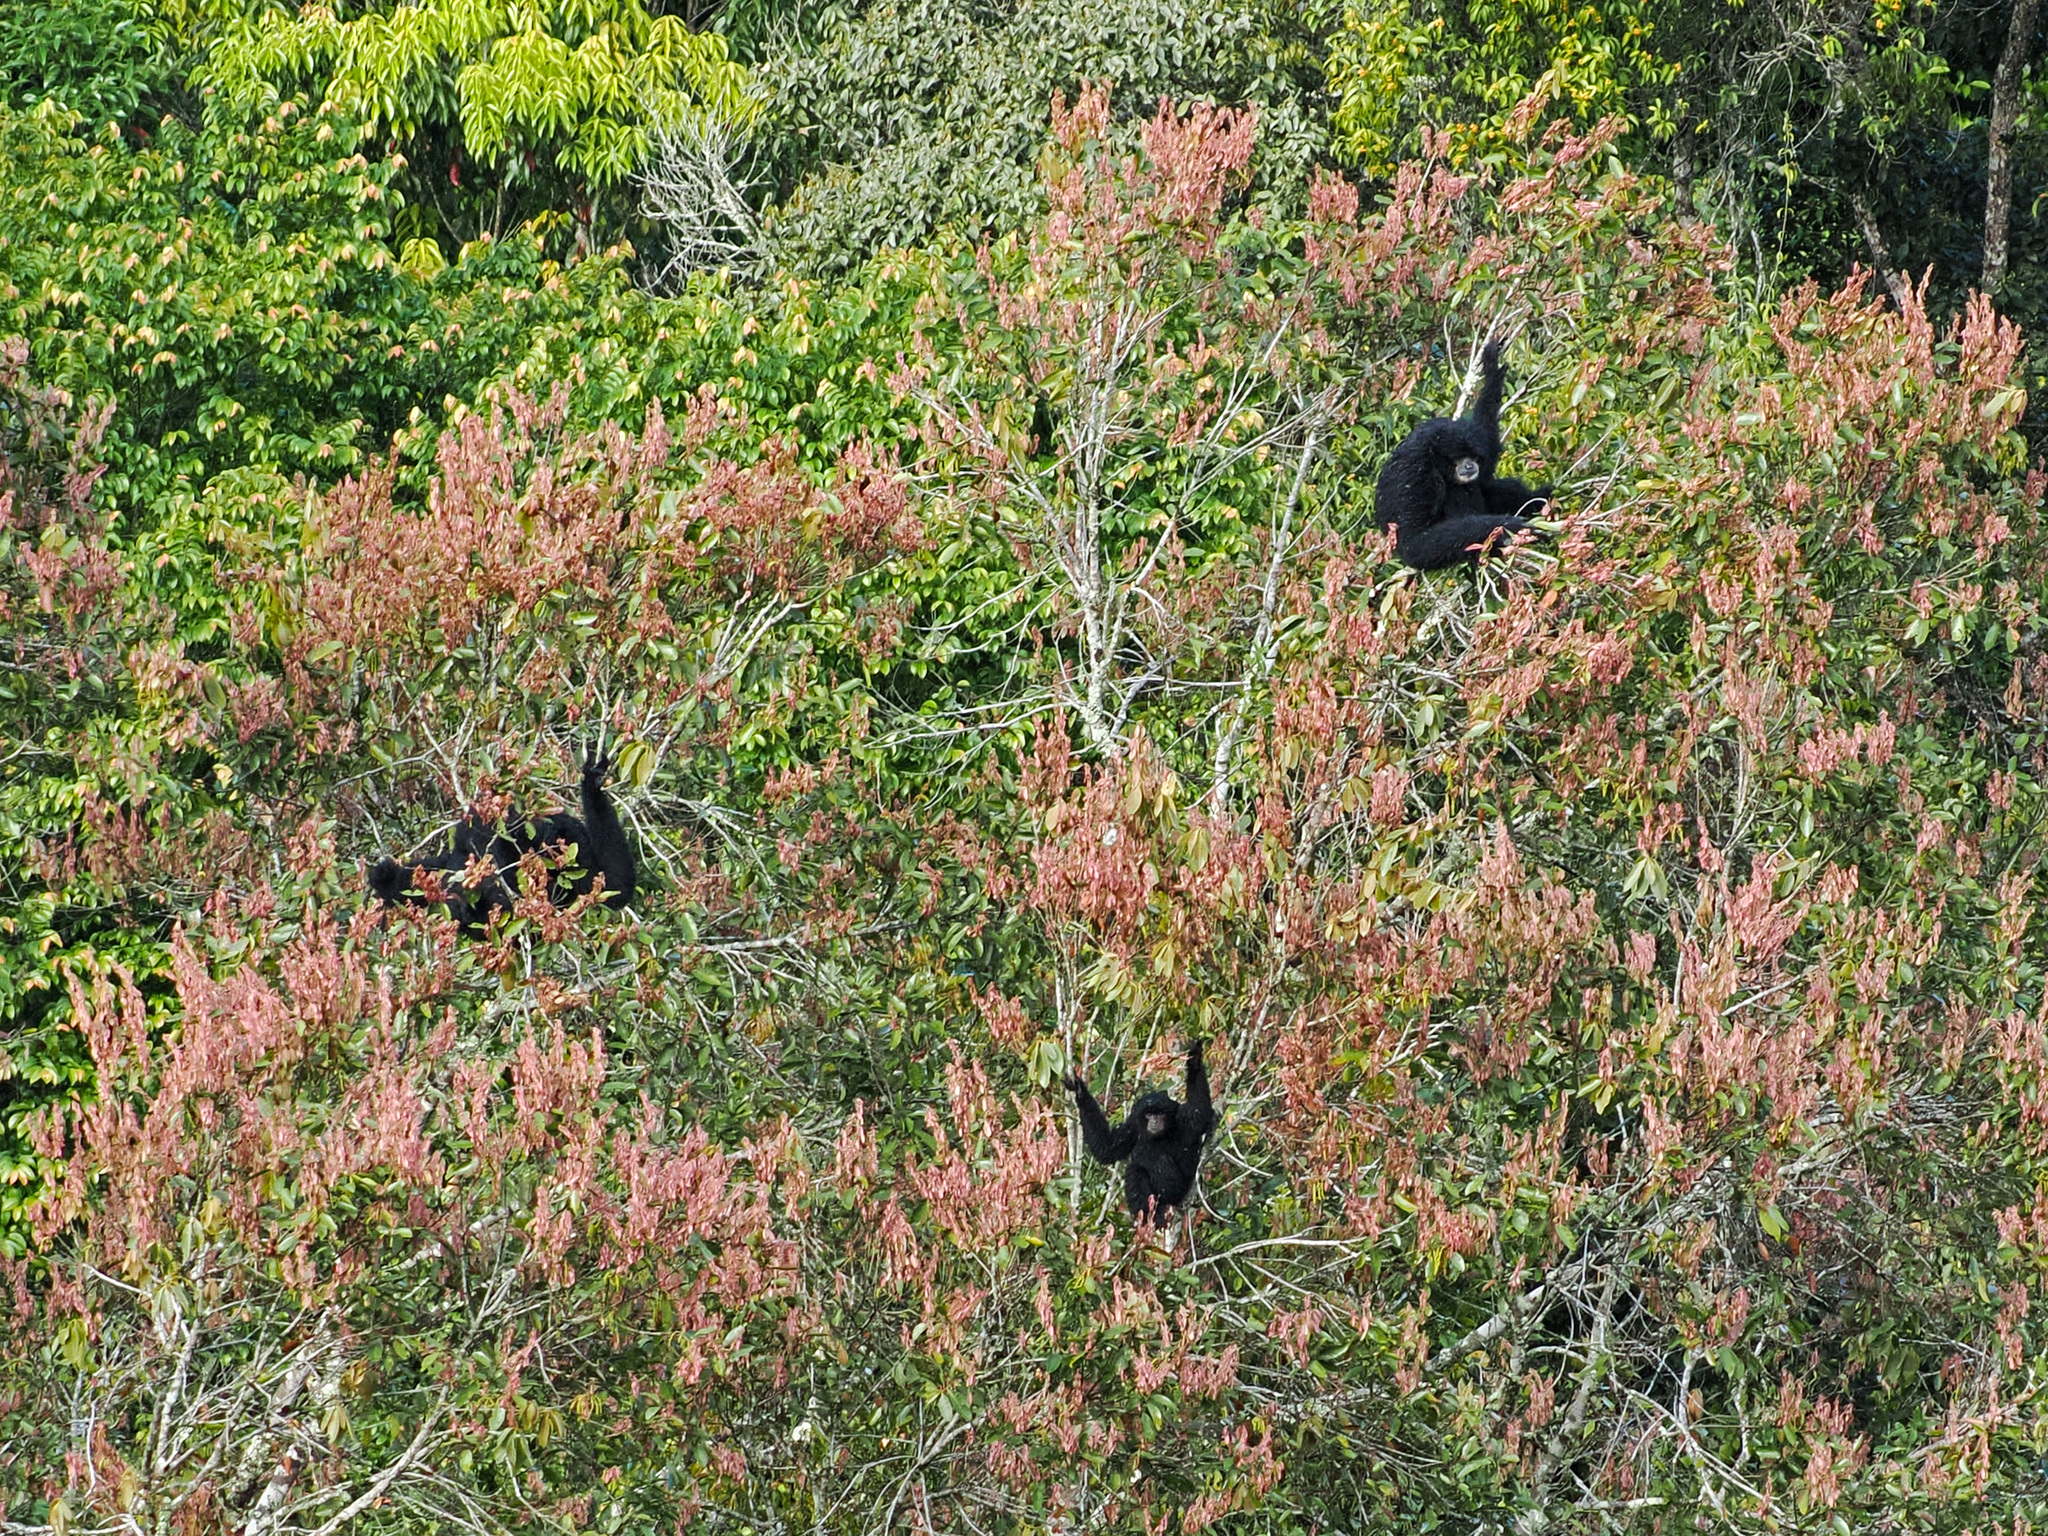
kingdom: Animalia
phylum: Chordata
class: Mammalia
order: Primates
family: Hylobatidae
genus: Symphalangus
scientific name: Symphalangus syndactylus
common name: Siamang
